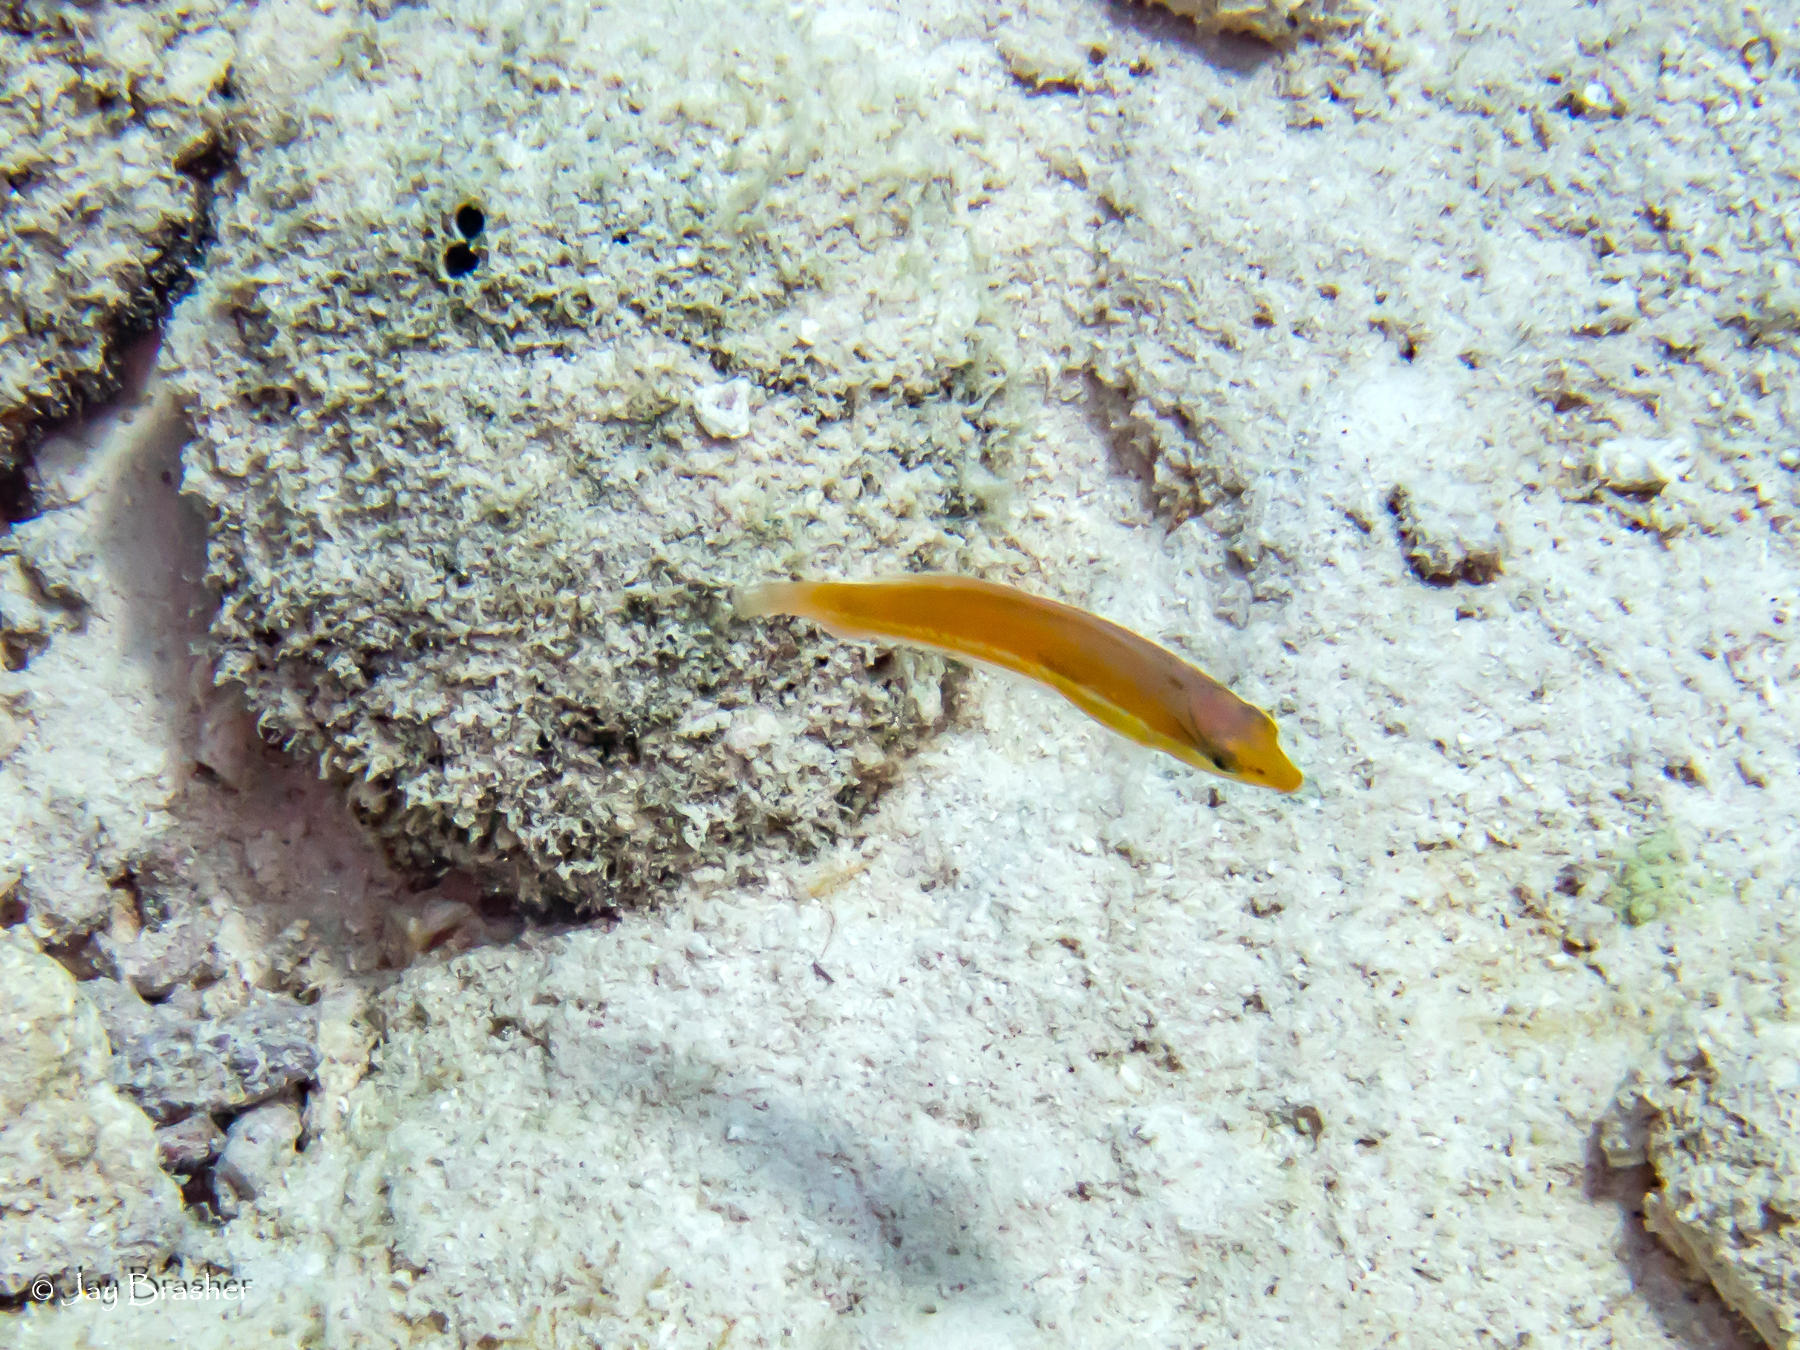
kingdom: Animalia
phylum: Chordata
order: Perciformes
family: Labridae
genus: Halichoeres
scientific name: Halichoeres garnoti
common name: Yellowhead wrasse
